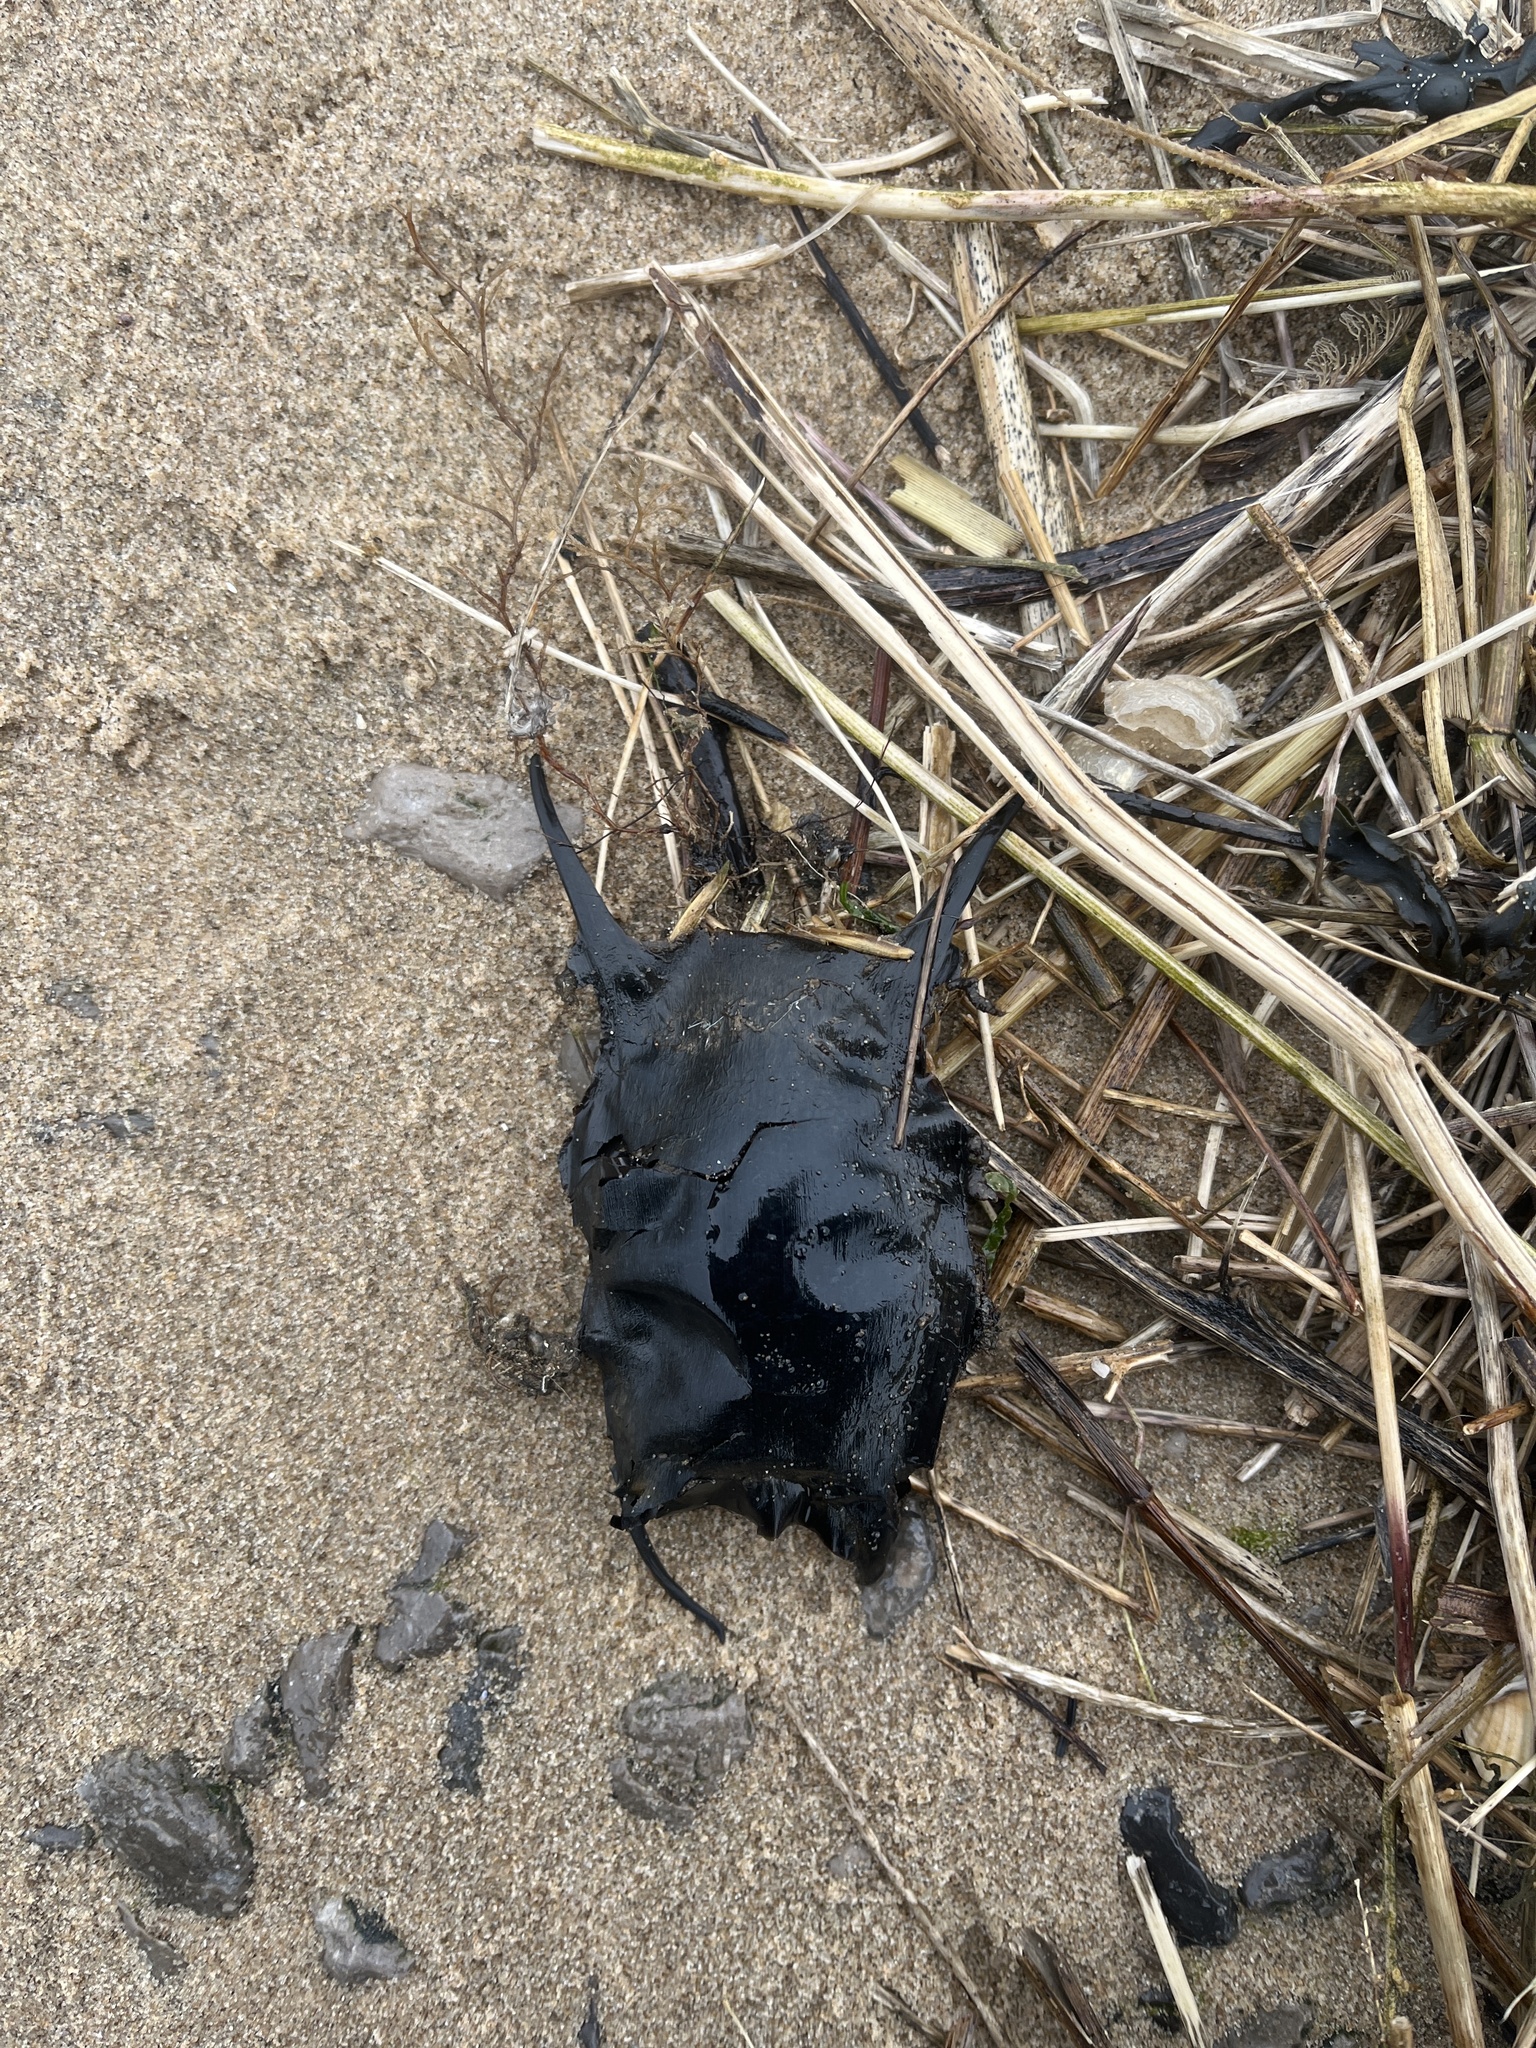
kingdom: Animalia
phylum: Chordata
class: Elasmobranchii
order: Rajiformes
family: Rajidae
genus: Raja
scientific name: Raja clavata
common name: Thornback ray
